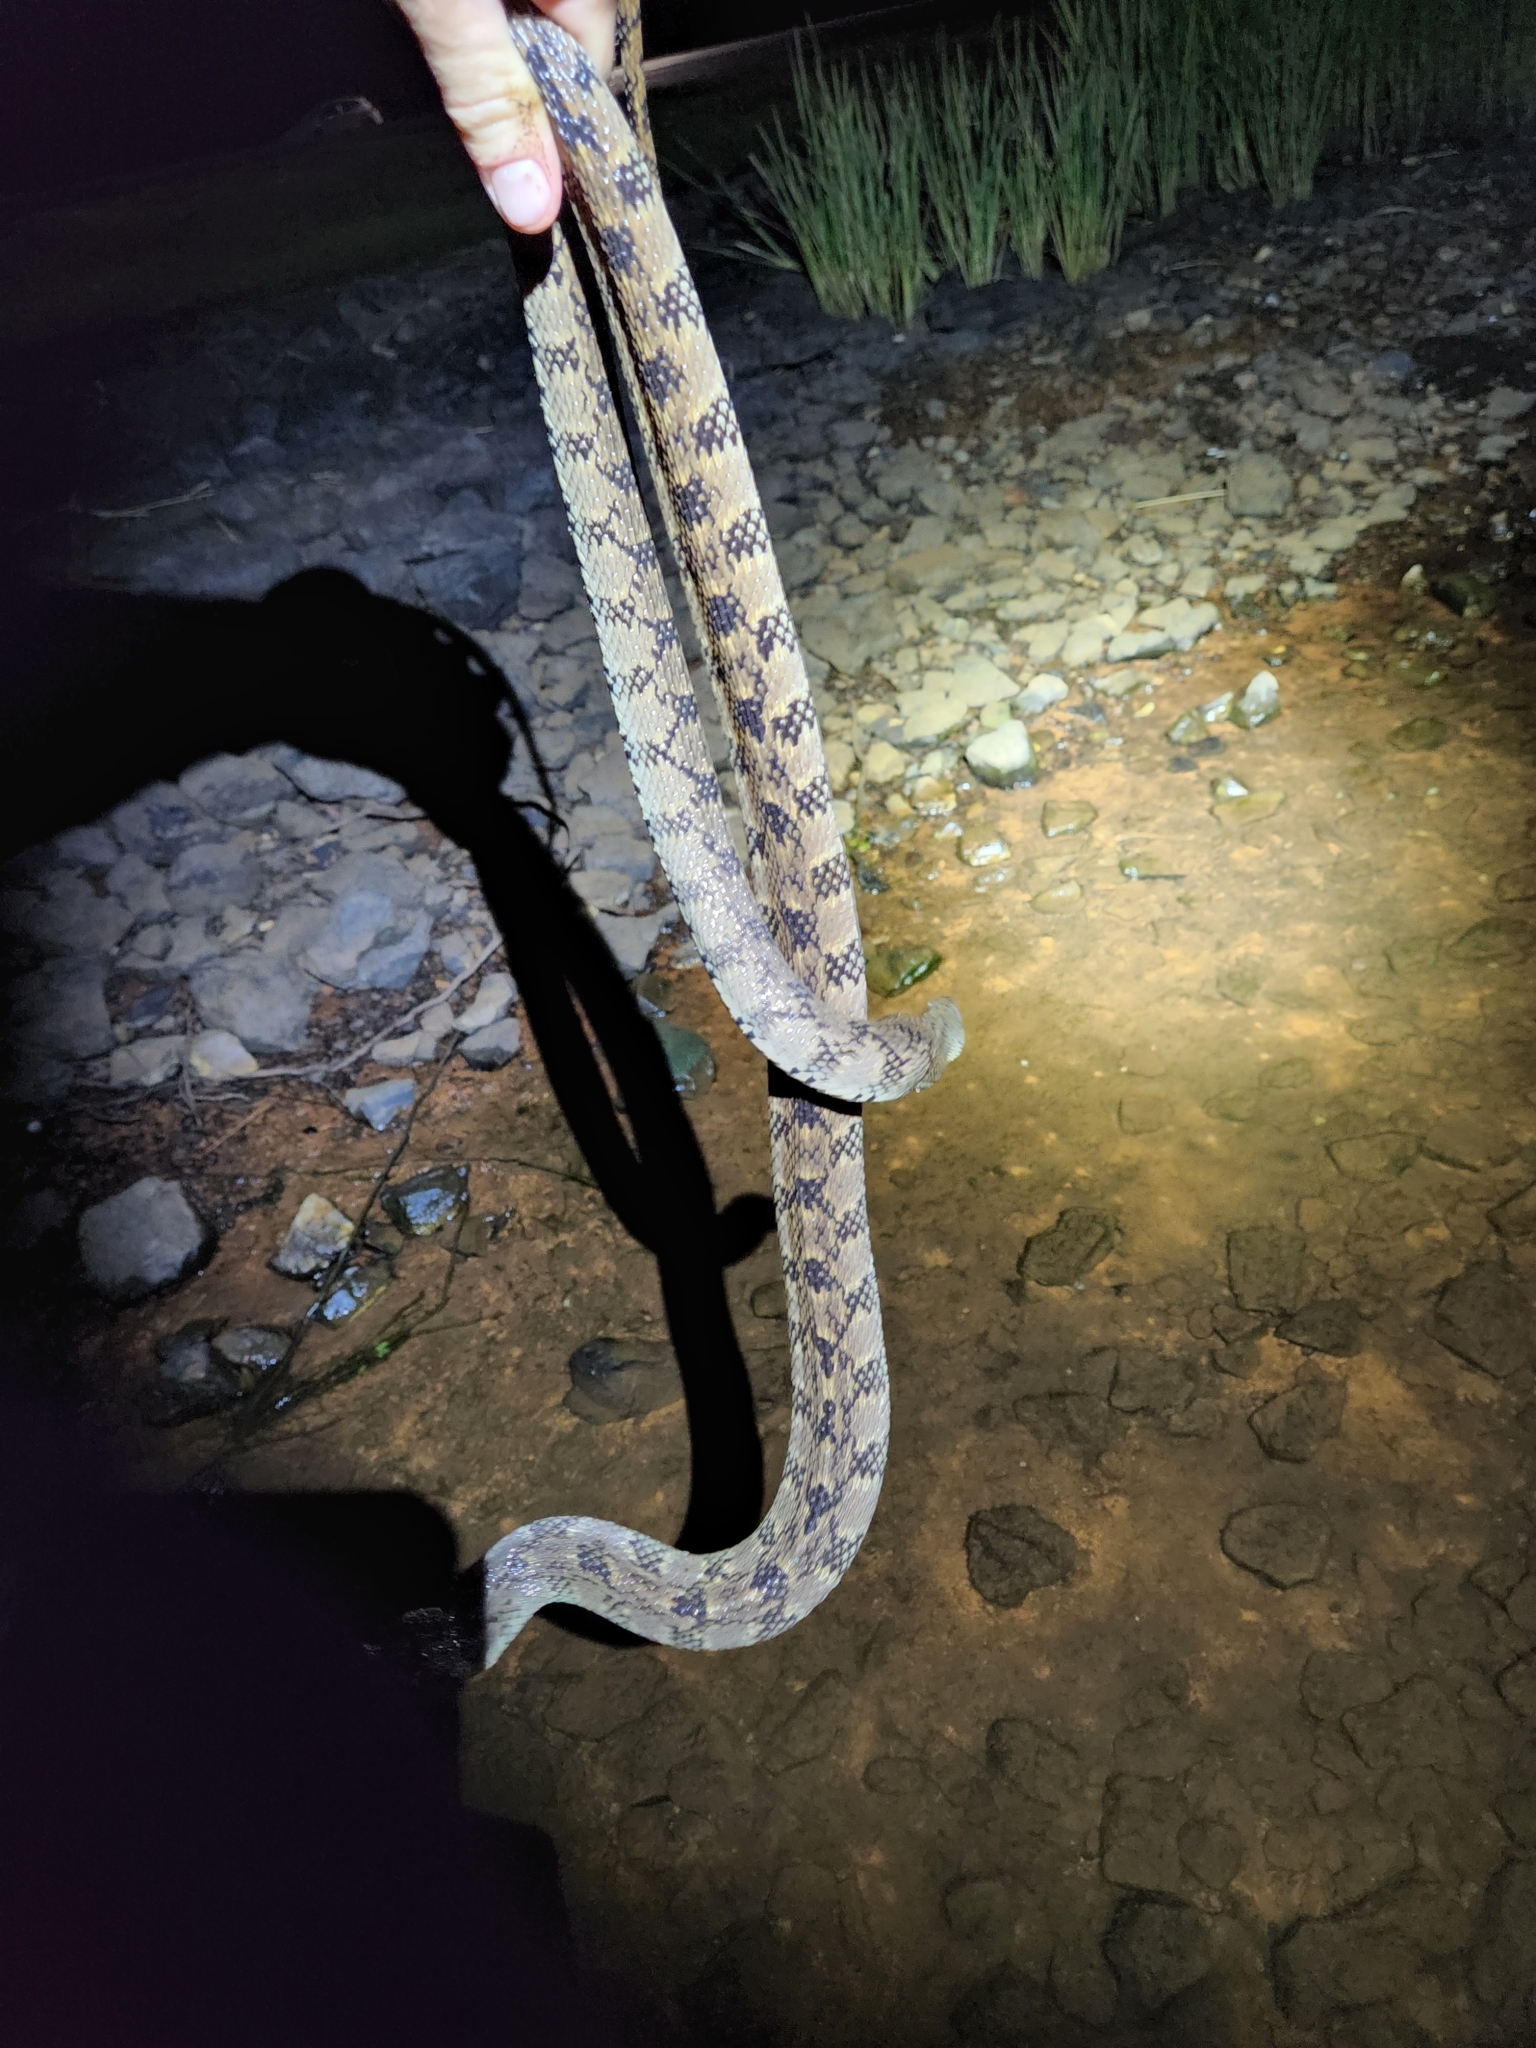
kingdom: Animalia
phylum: Chordata
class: Squamata
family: Colubridae
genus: Nerodia
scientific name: Nerodia rhombifer
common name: Diamondback water snake
